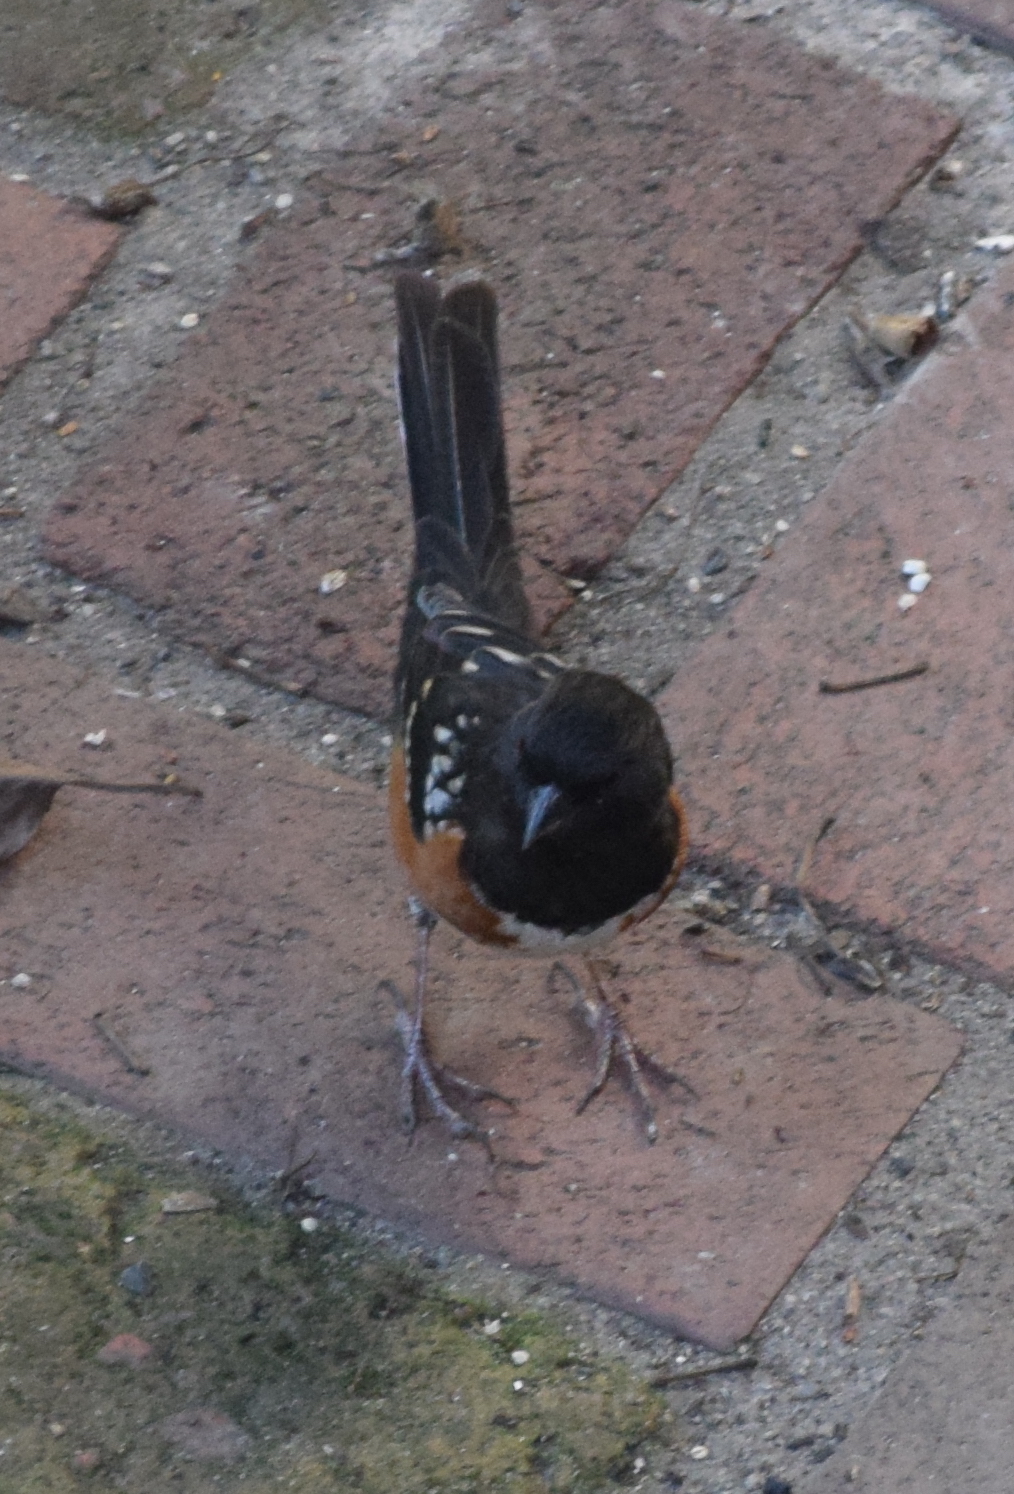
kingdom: Animalia
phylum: Chordata
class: Aves
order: Passeriformes
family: Passerellidae
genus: Pipilo
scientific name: Pipilo maculatus
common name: Spotted towhee
